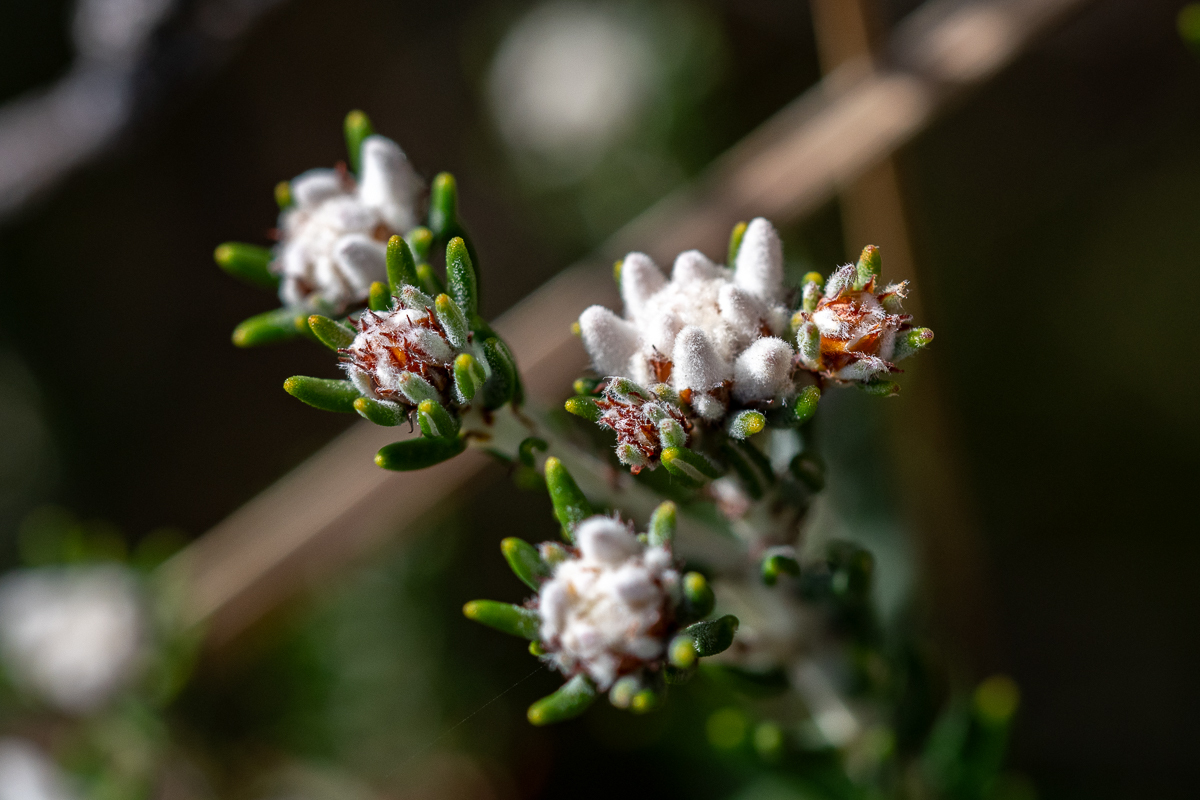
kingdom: Plantae
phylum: Tracheophyta
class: Magnoliopsida
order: Rosales
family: Rhamnaceae
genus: Trichocephalus
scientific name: Trichocephalus stipularis
